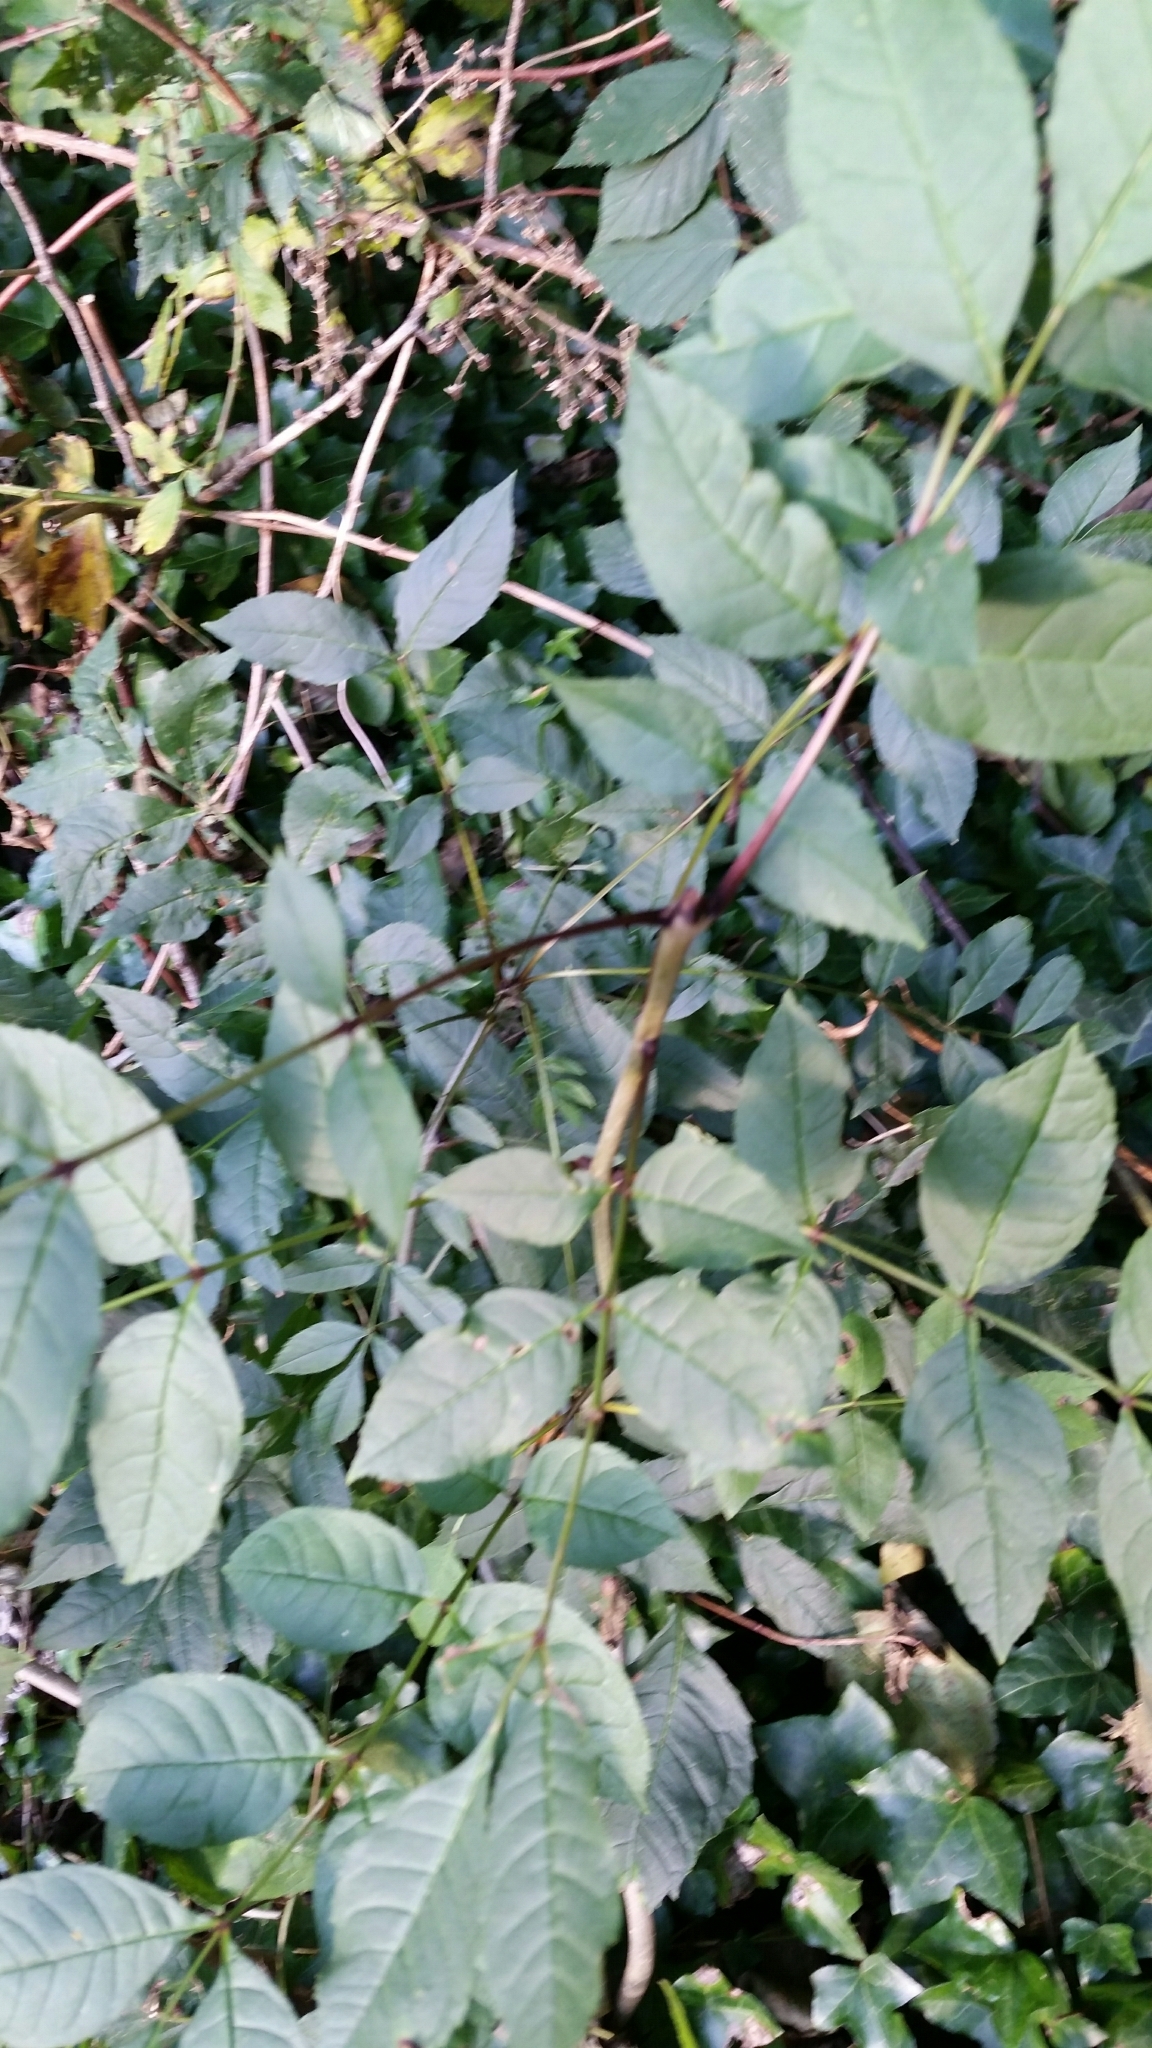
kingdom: Plantae
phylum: Tracheophyta
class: Magnoliopsida
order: Lamiales
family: Oleaceae
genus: Fraxinus
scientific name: Fraxinus excelsior
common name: European ash
